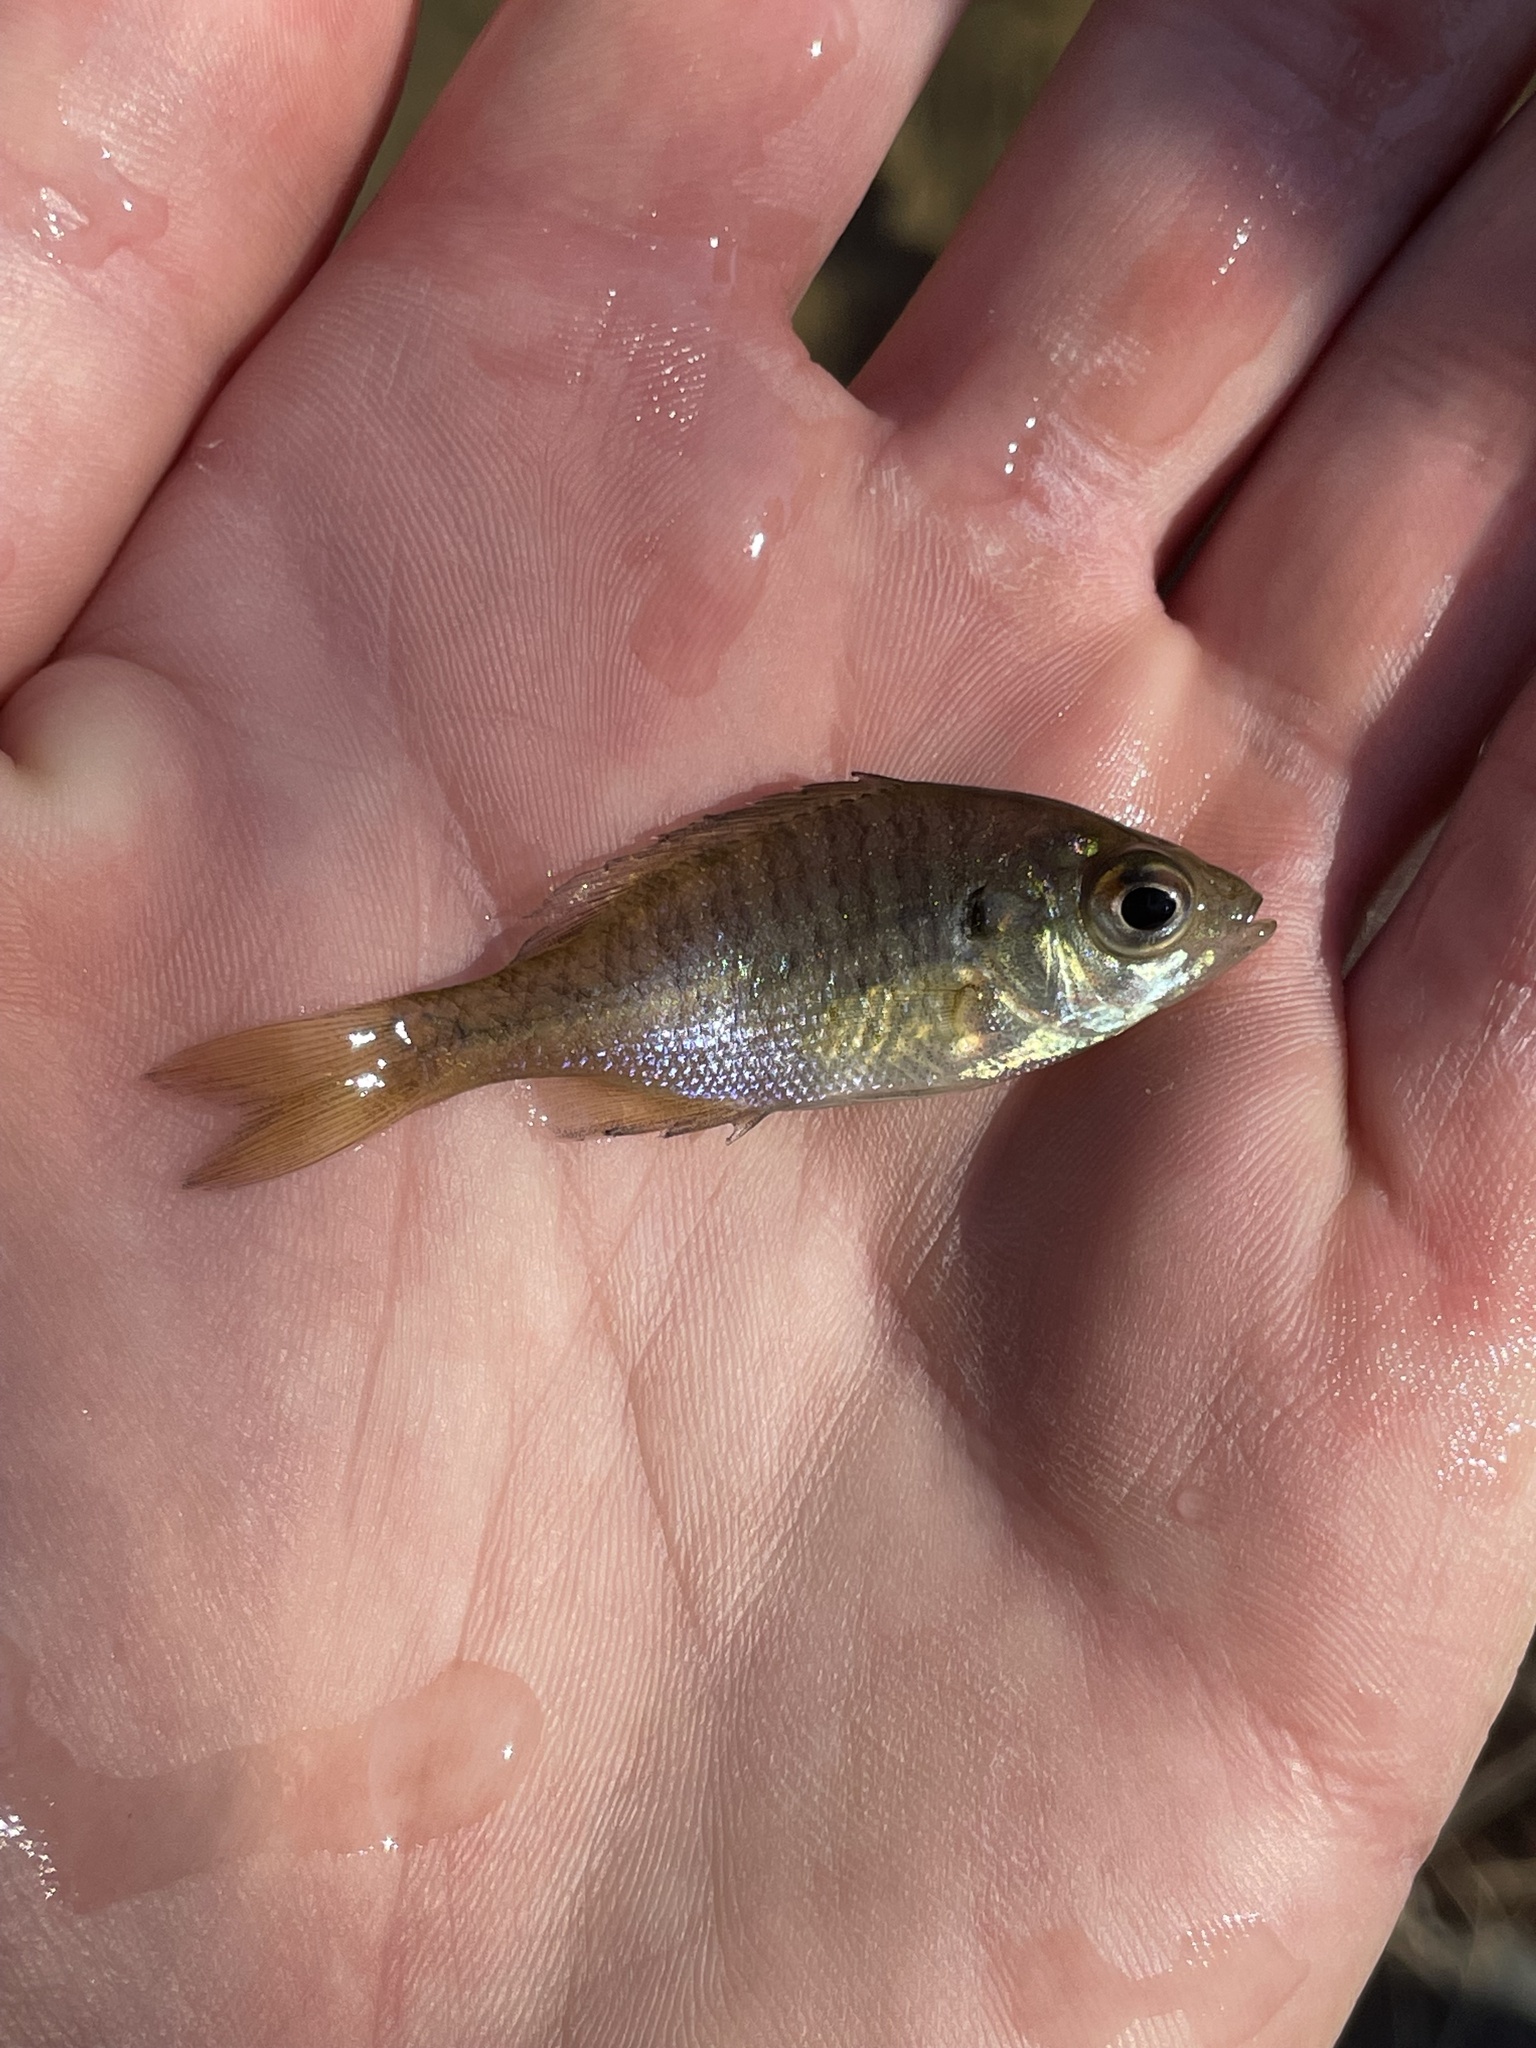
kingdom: Animalia
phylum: Chordata
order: Perciformes
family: Centrarchidae
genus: Lepomis
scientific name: Lepomis macrochirus
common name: Bluegill
